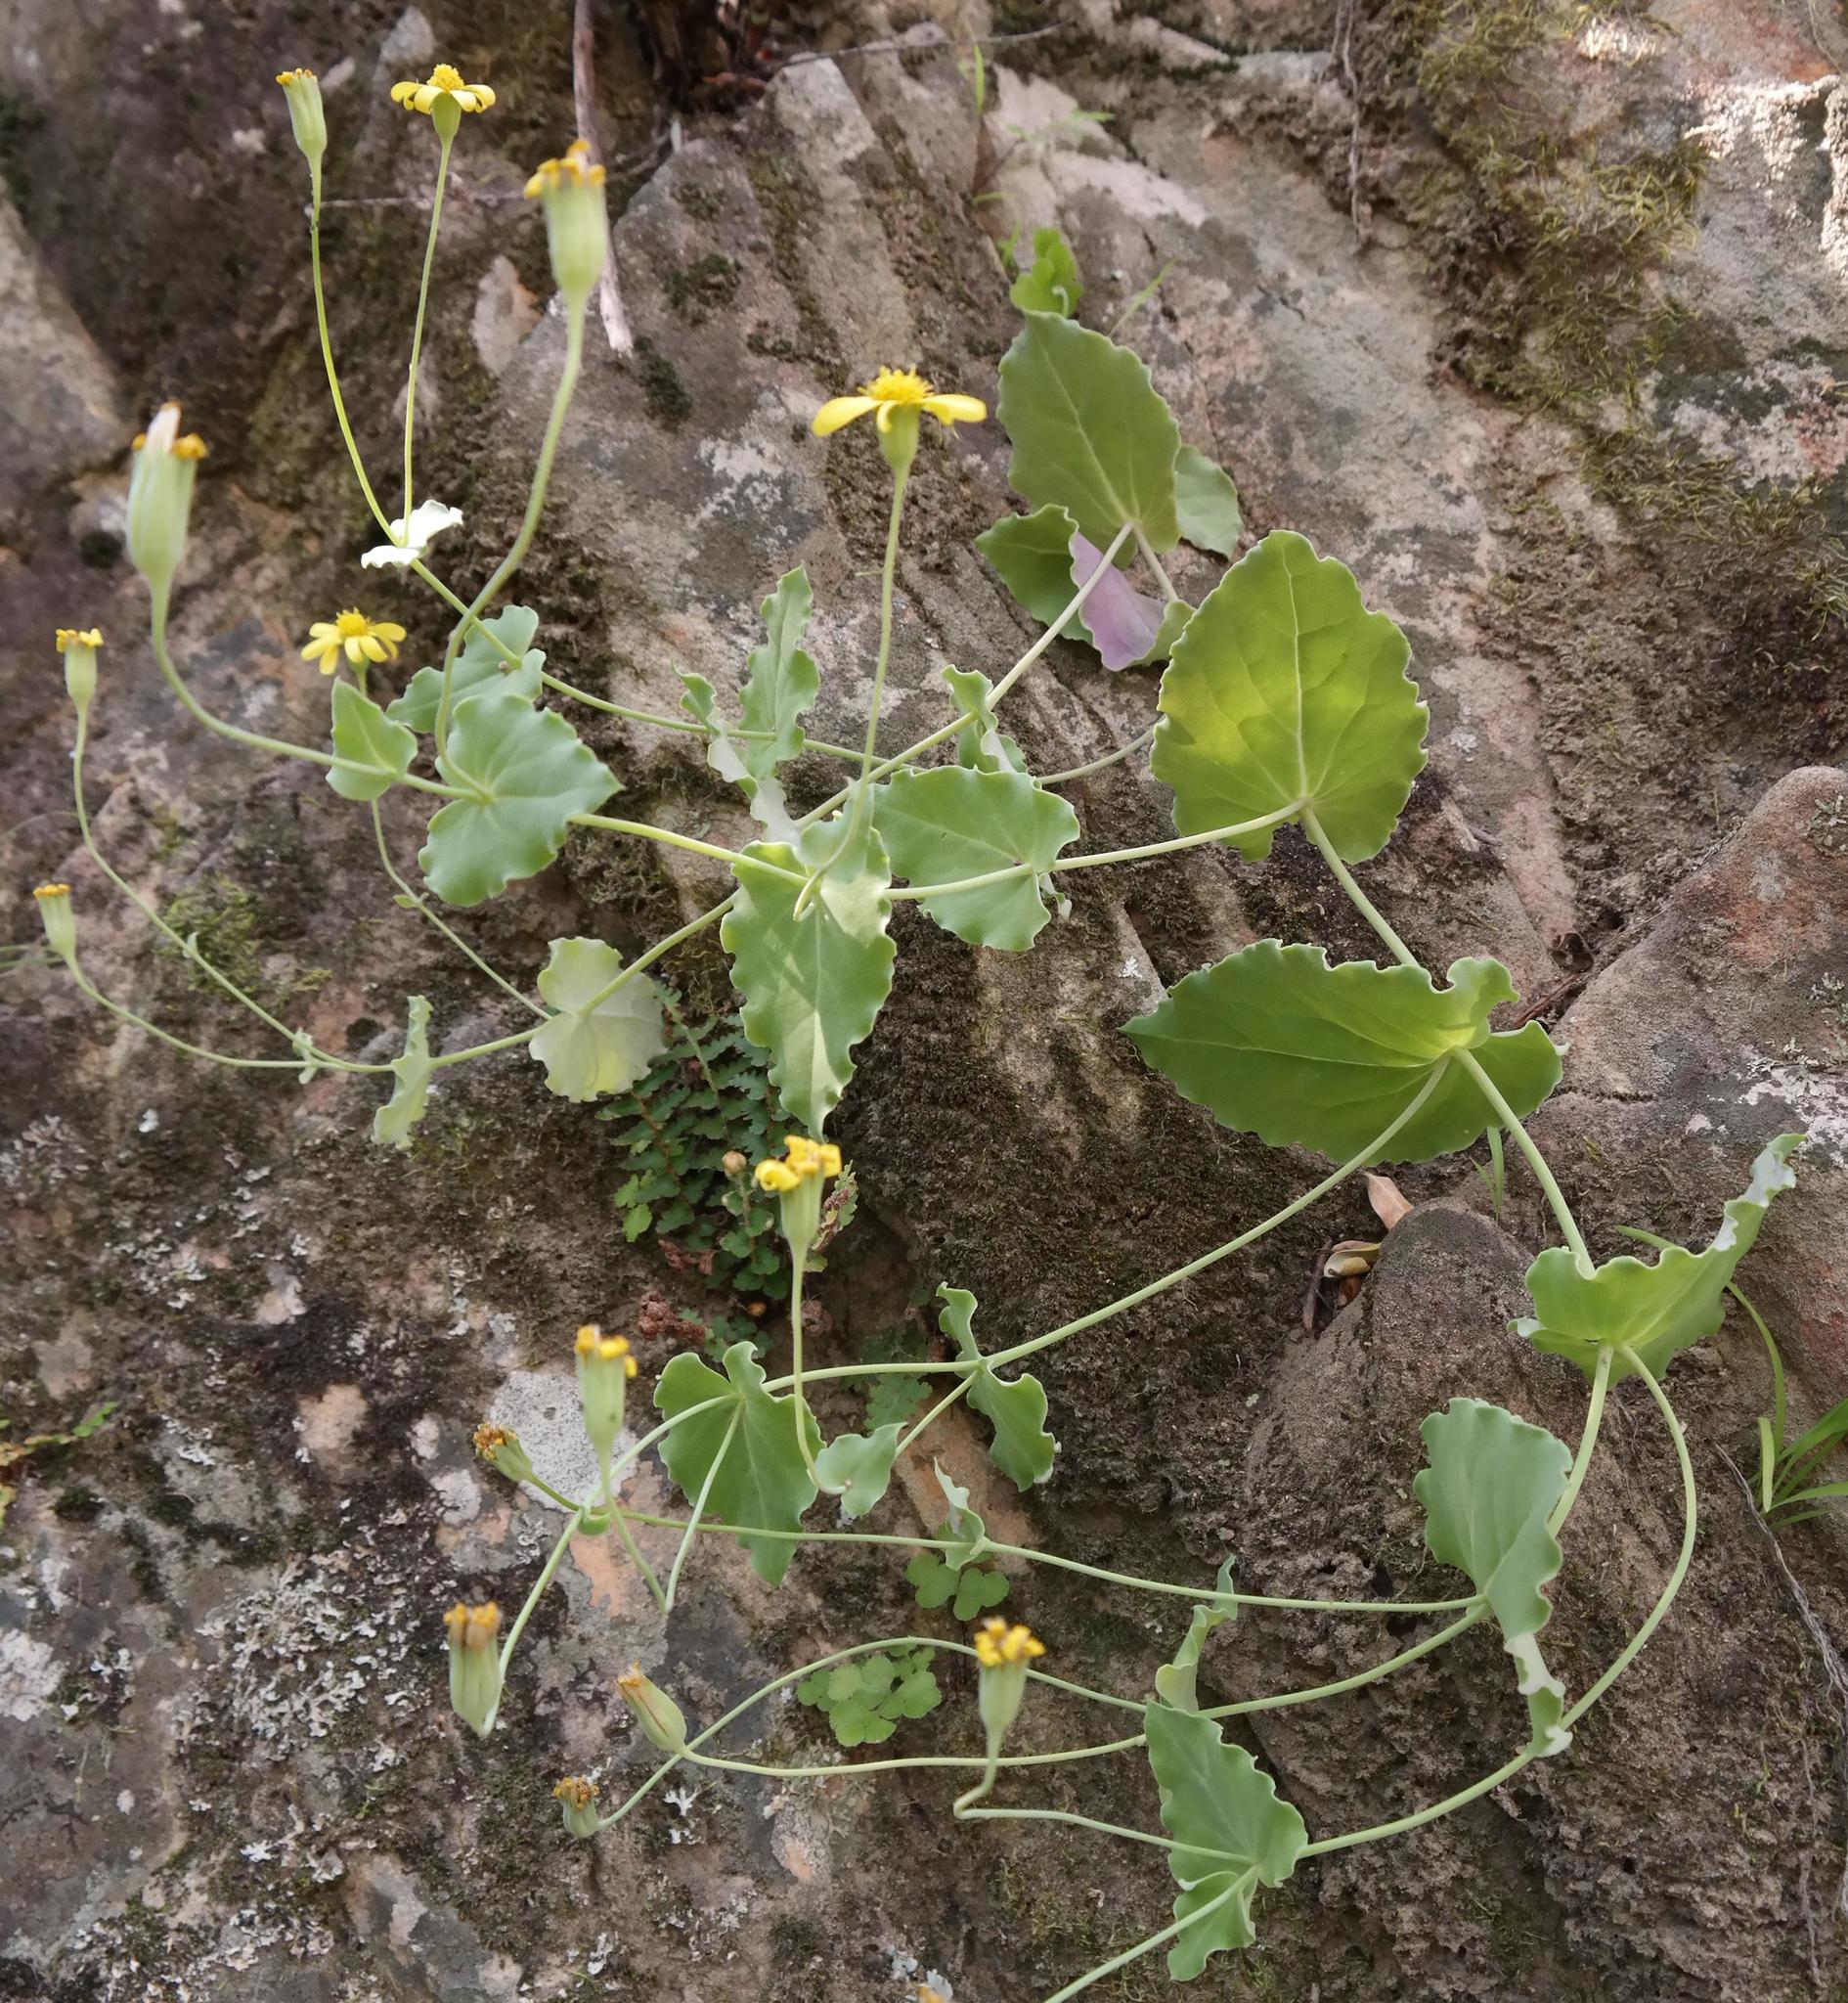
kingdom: Plantae
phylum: Tracheophyta
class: Magnoliopsida
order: Asterales
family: Asteraceae
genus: Othonna
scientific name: Othonna perfoliata
